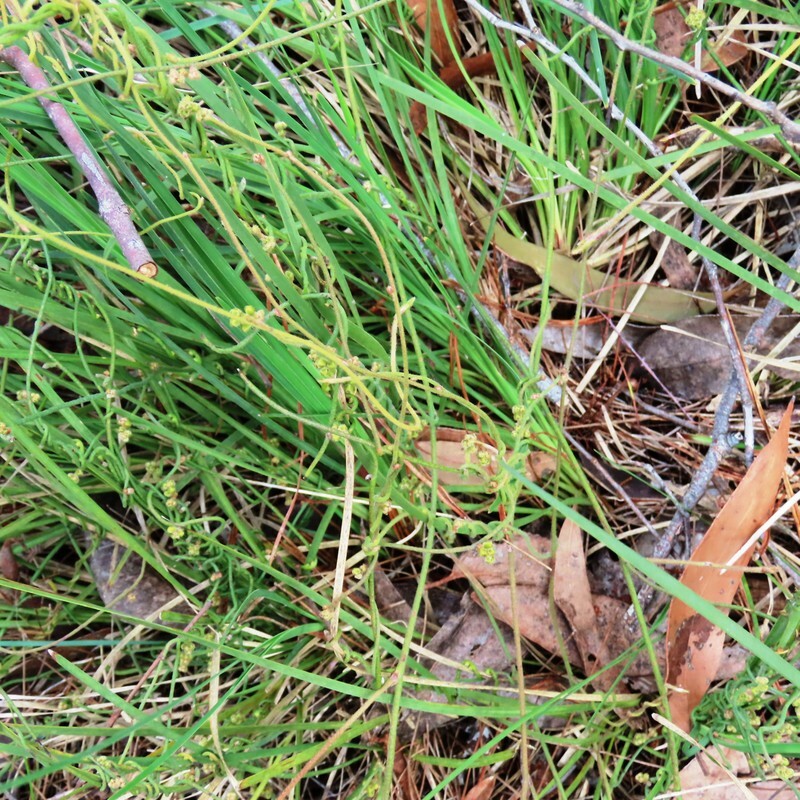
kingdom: Plantae
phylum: Tracheophyta
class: Magnoliopsida
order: Laurales
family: Lauraceae
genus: Cassytha
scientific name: Cassytha glabella
